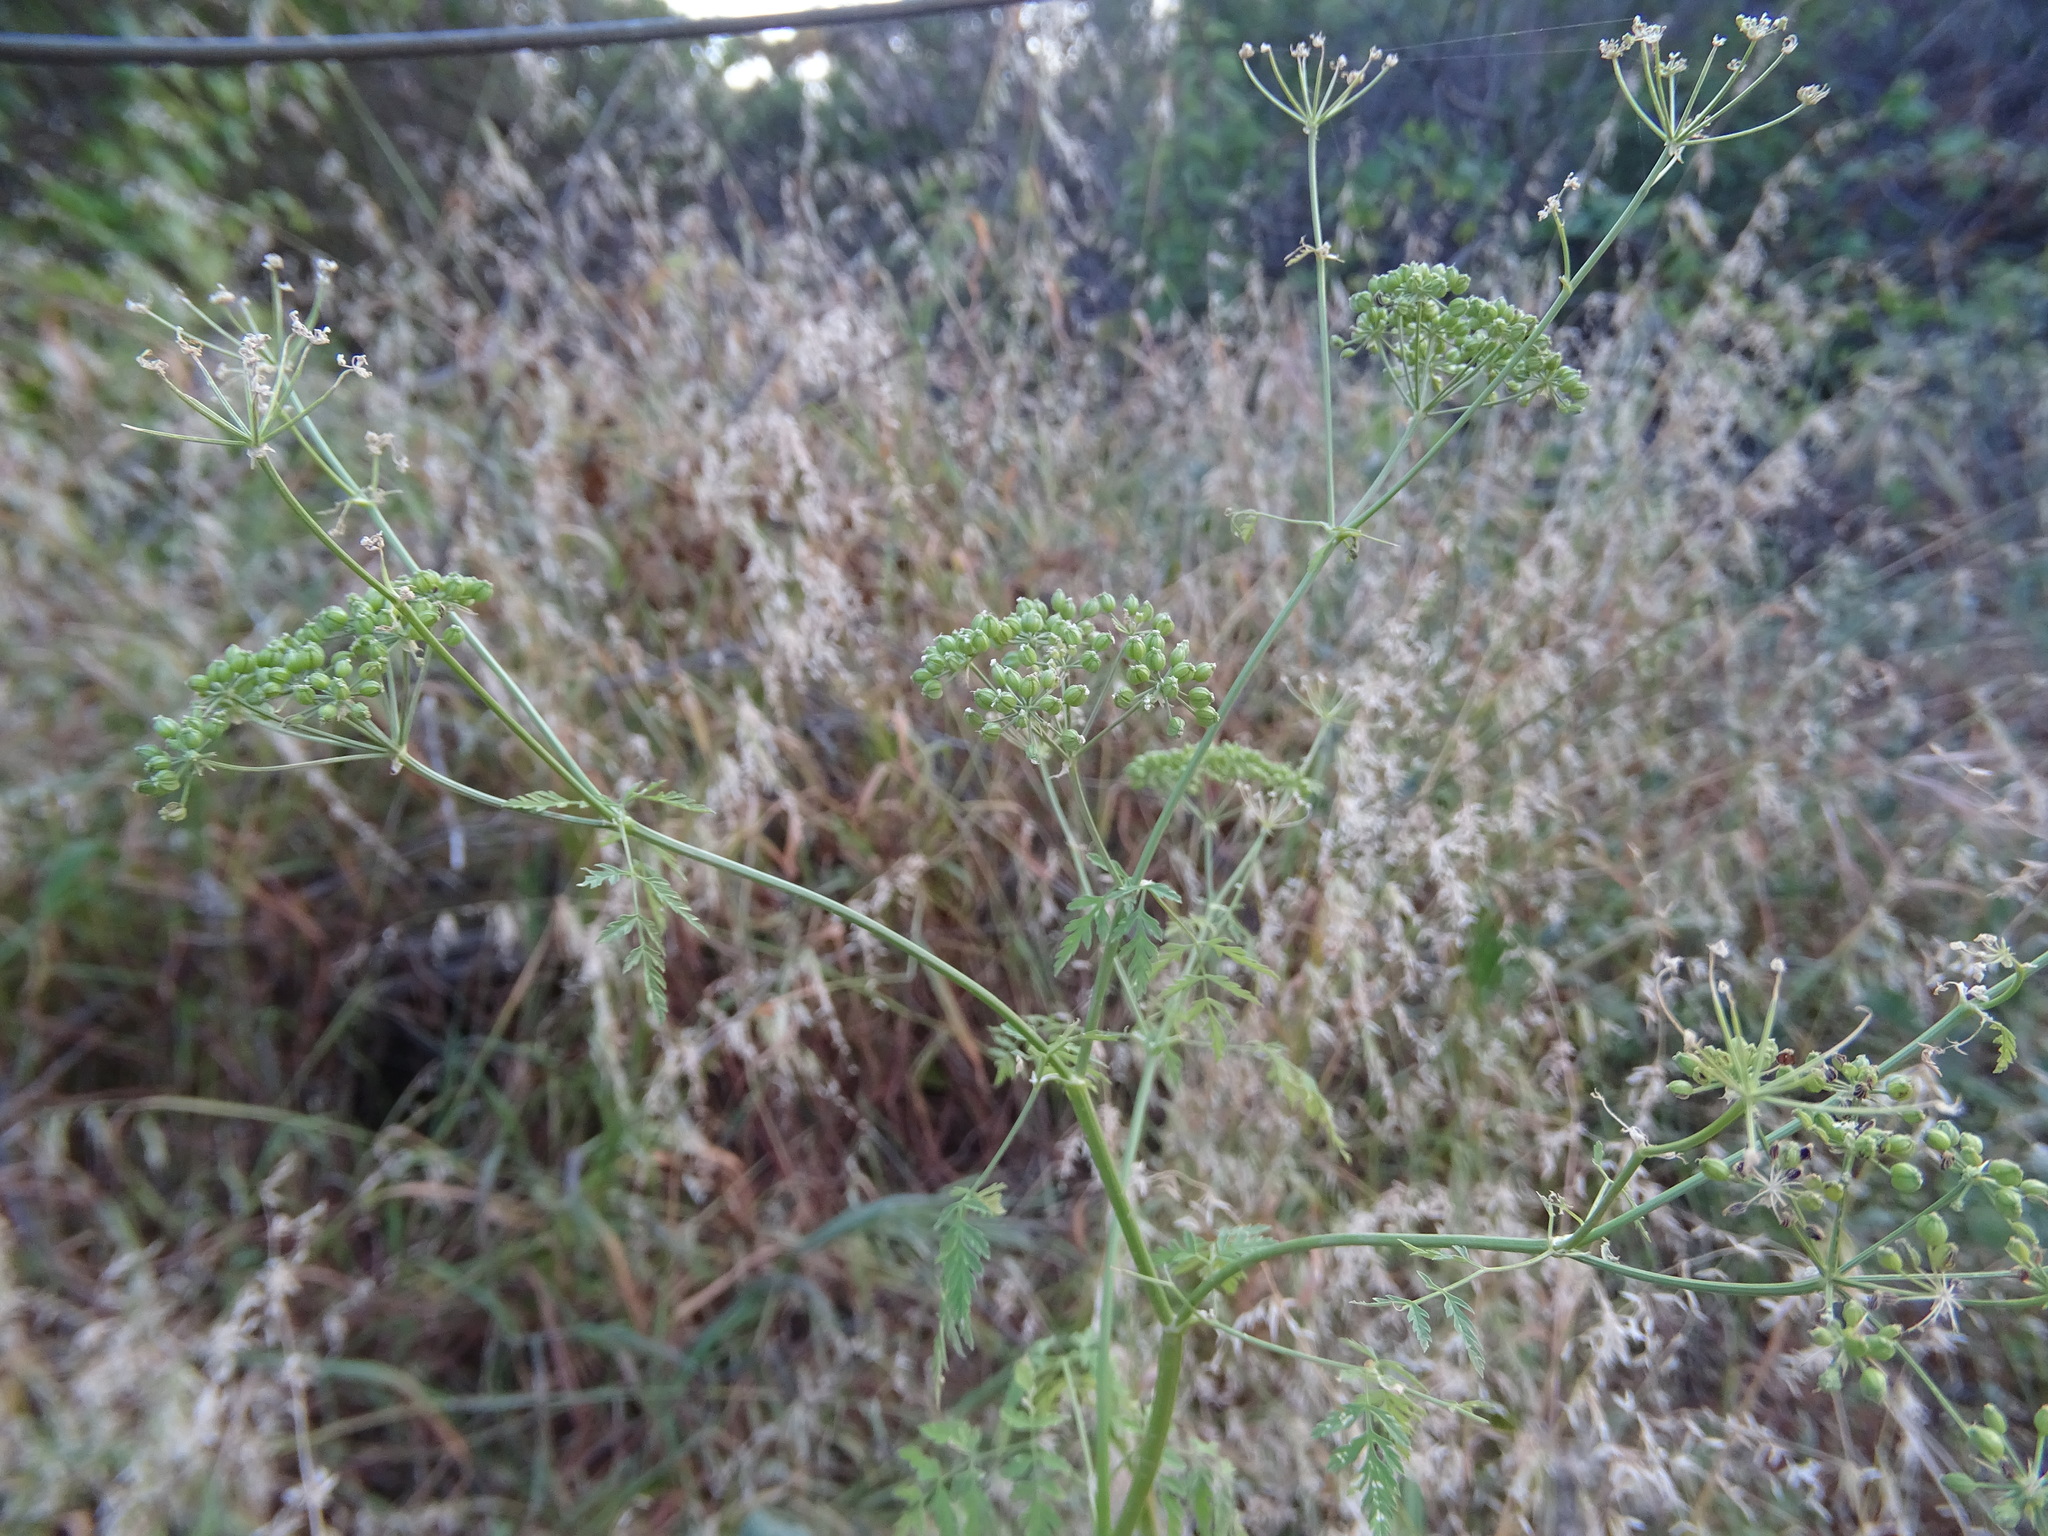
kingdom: Plantae
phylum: Tracheophyta
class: Magnoliopsida
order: Apiales
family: Apiaceae
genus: Conium
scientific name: Conium maculatum
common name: Hemlock
